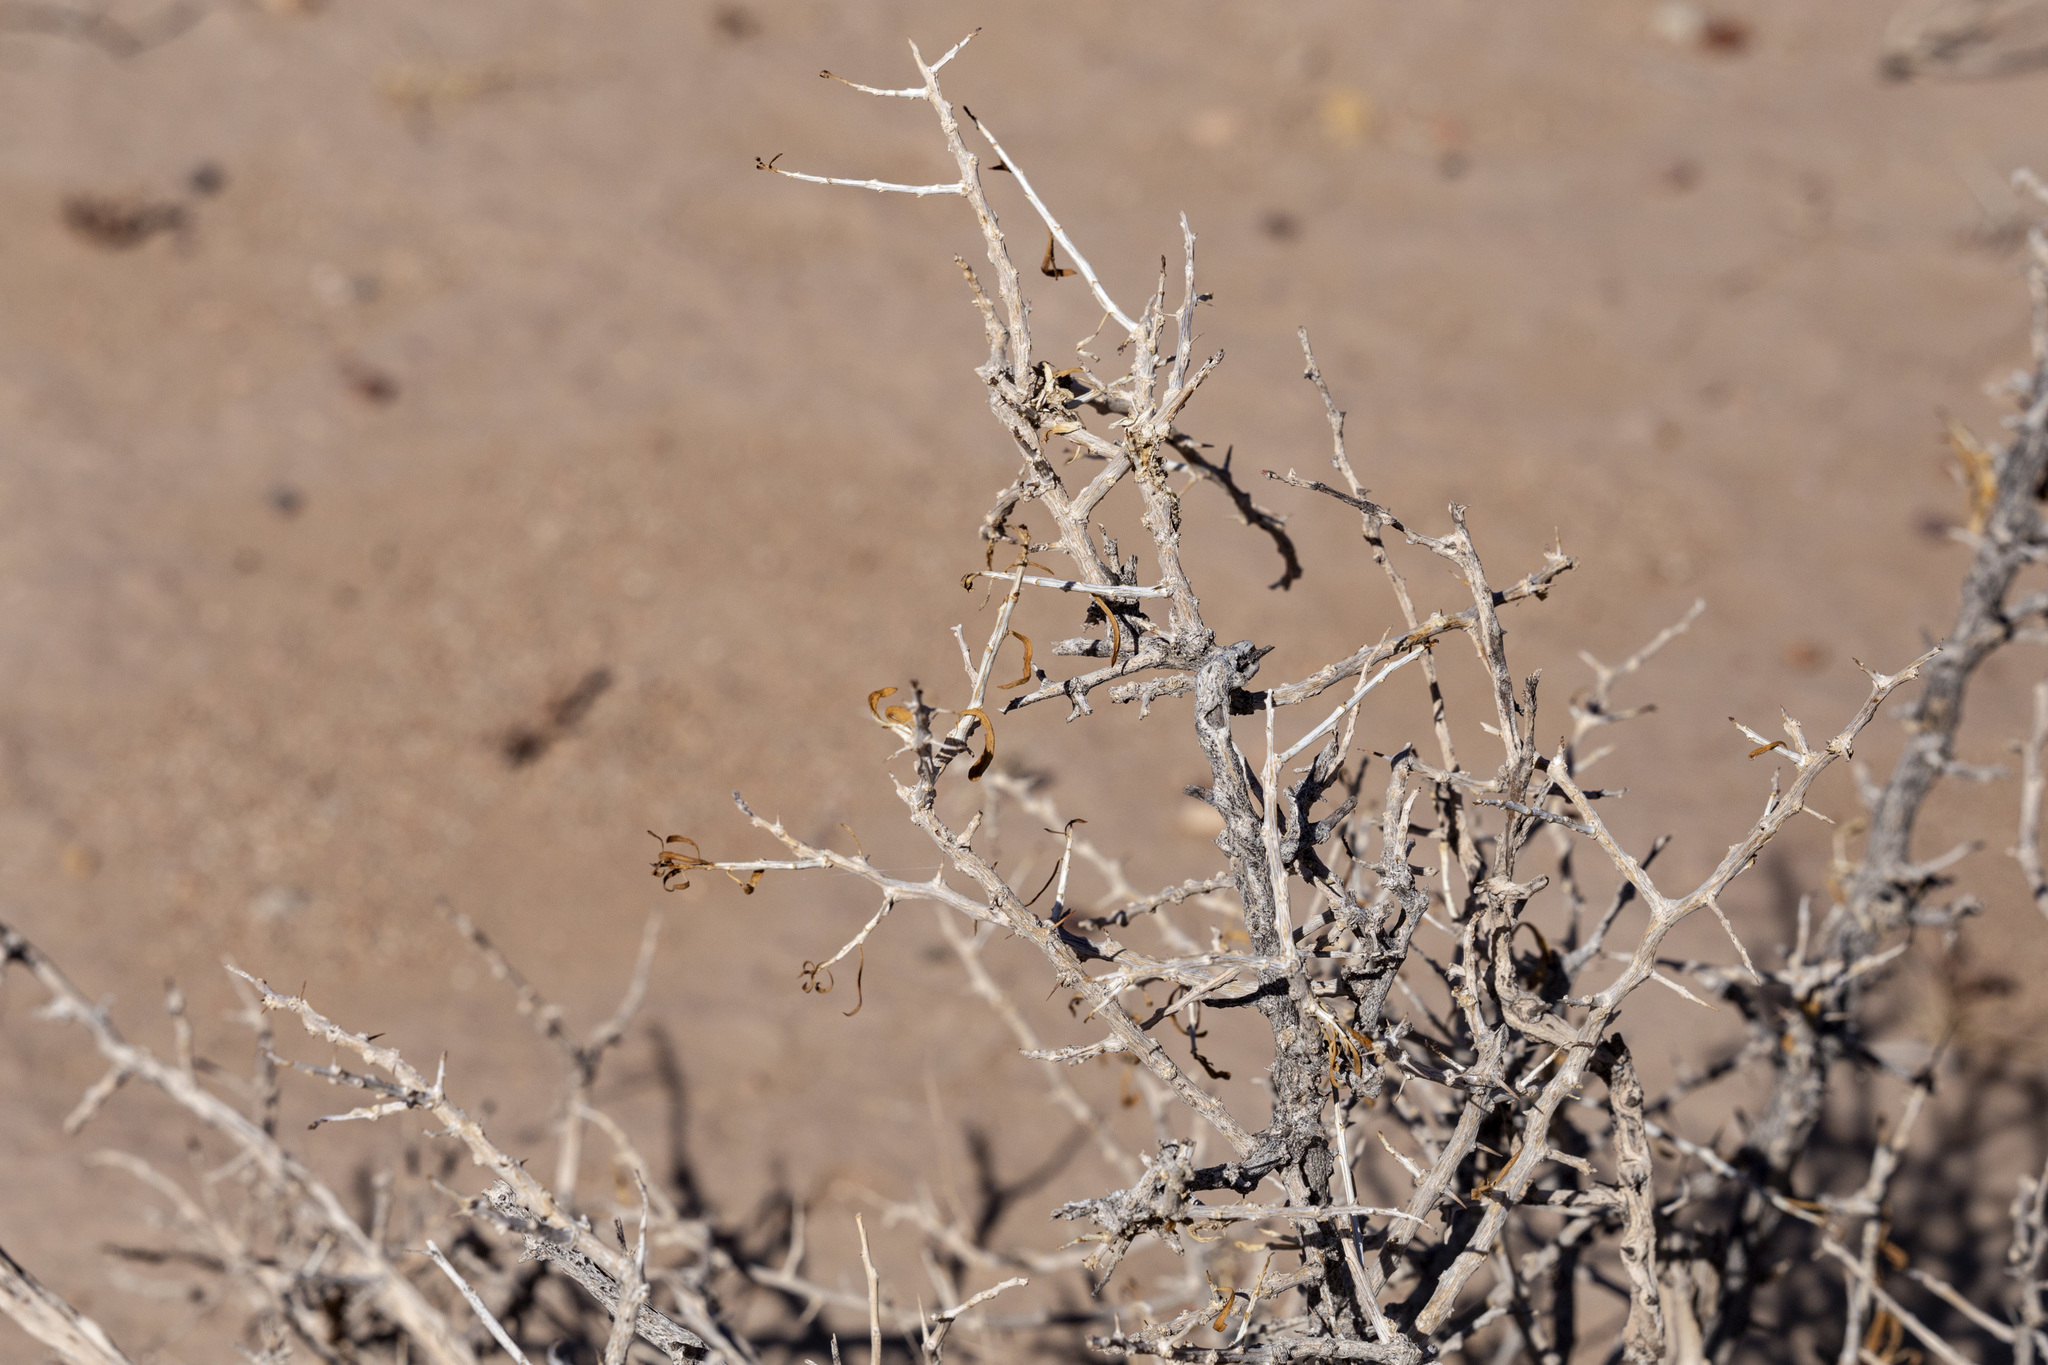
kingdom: Plantae
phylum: Tracheophyta
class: Magnoliopsida
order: Solanales
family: Solanaceae
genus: Lycium
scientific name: Lycium berlandieri
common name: Berlandier wolfberry
